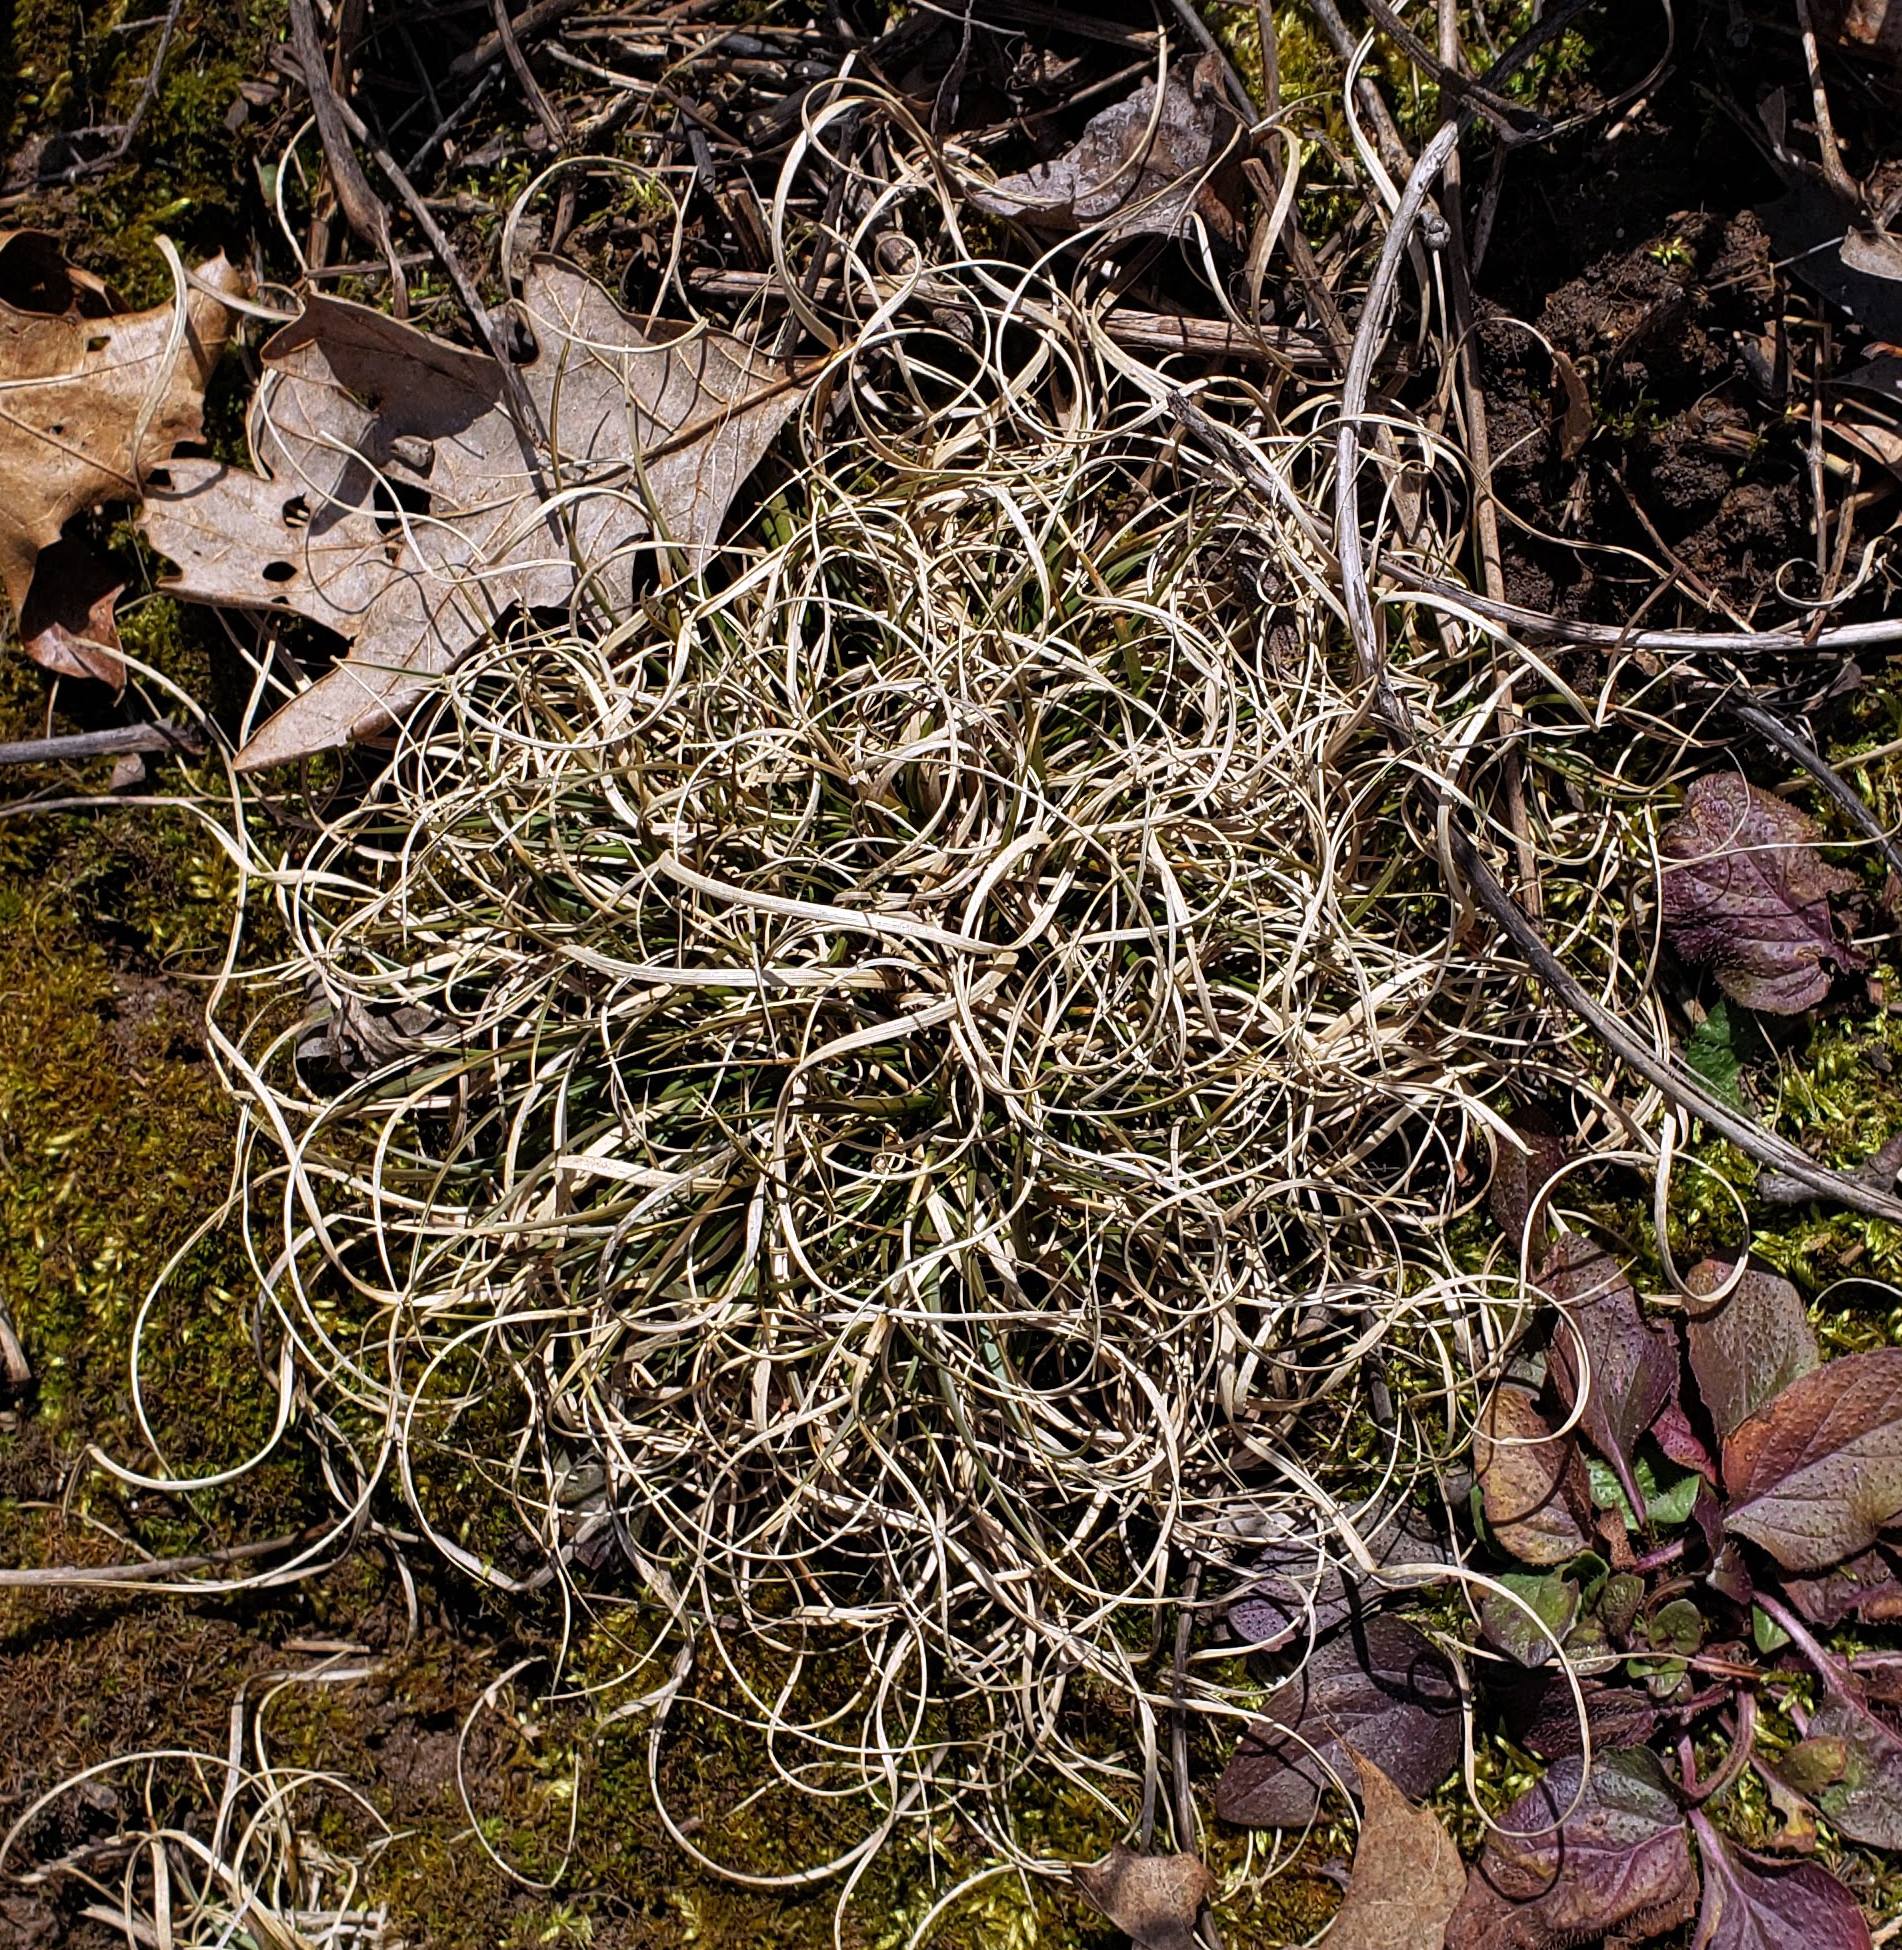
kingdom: Plantae
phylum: Tracheophyta
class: Liliopsida
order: Poales
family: Poaceae
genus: Danthonia
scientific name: Danthonia spicata
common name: Common wild oatgrass
